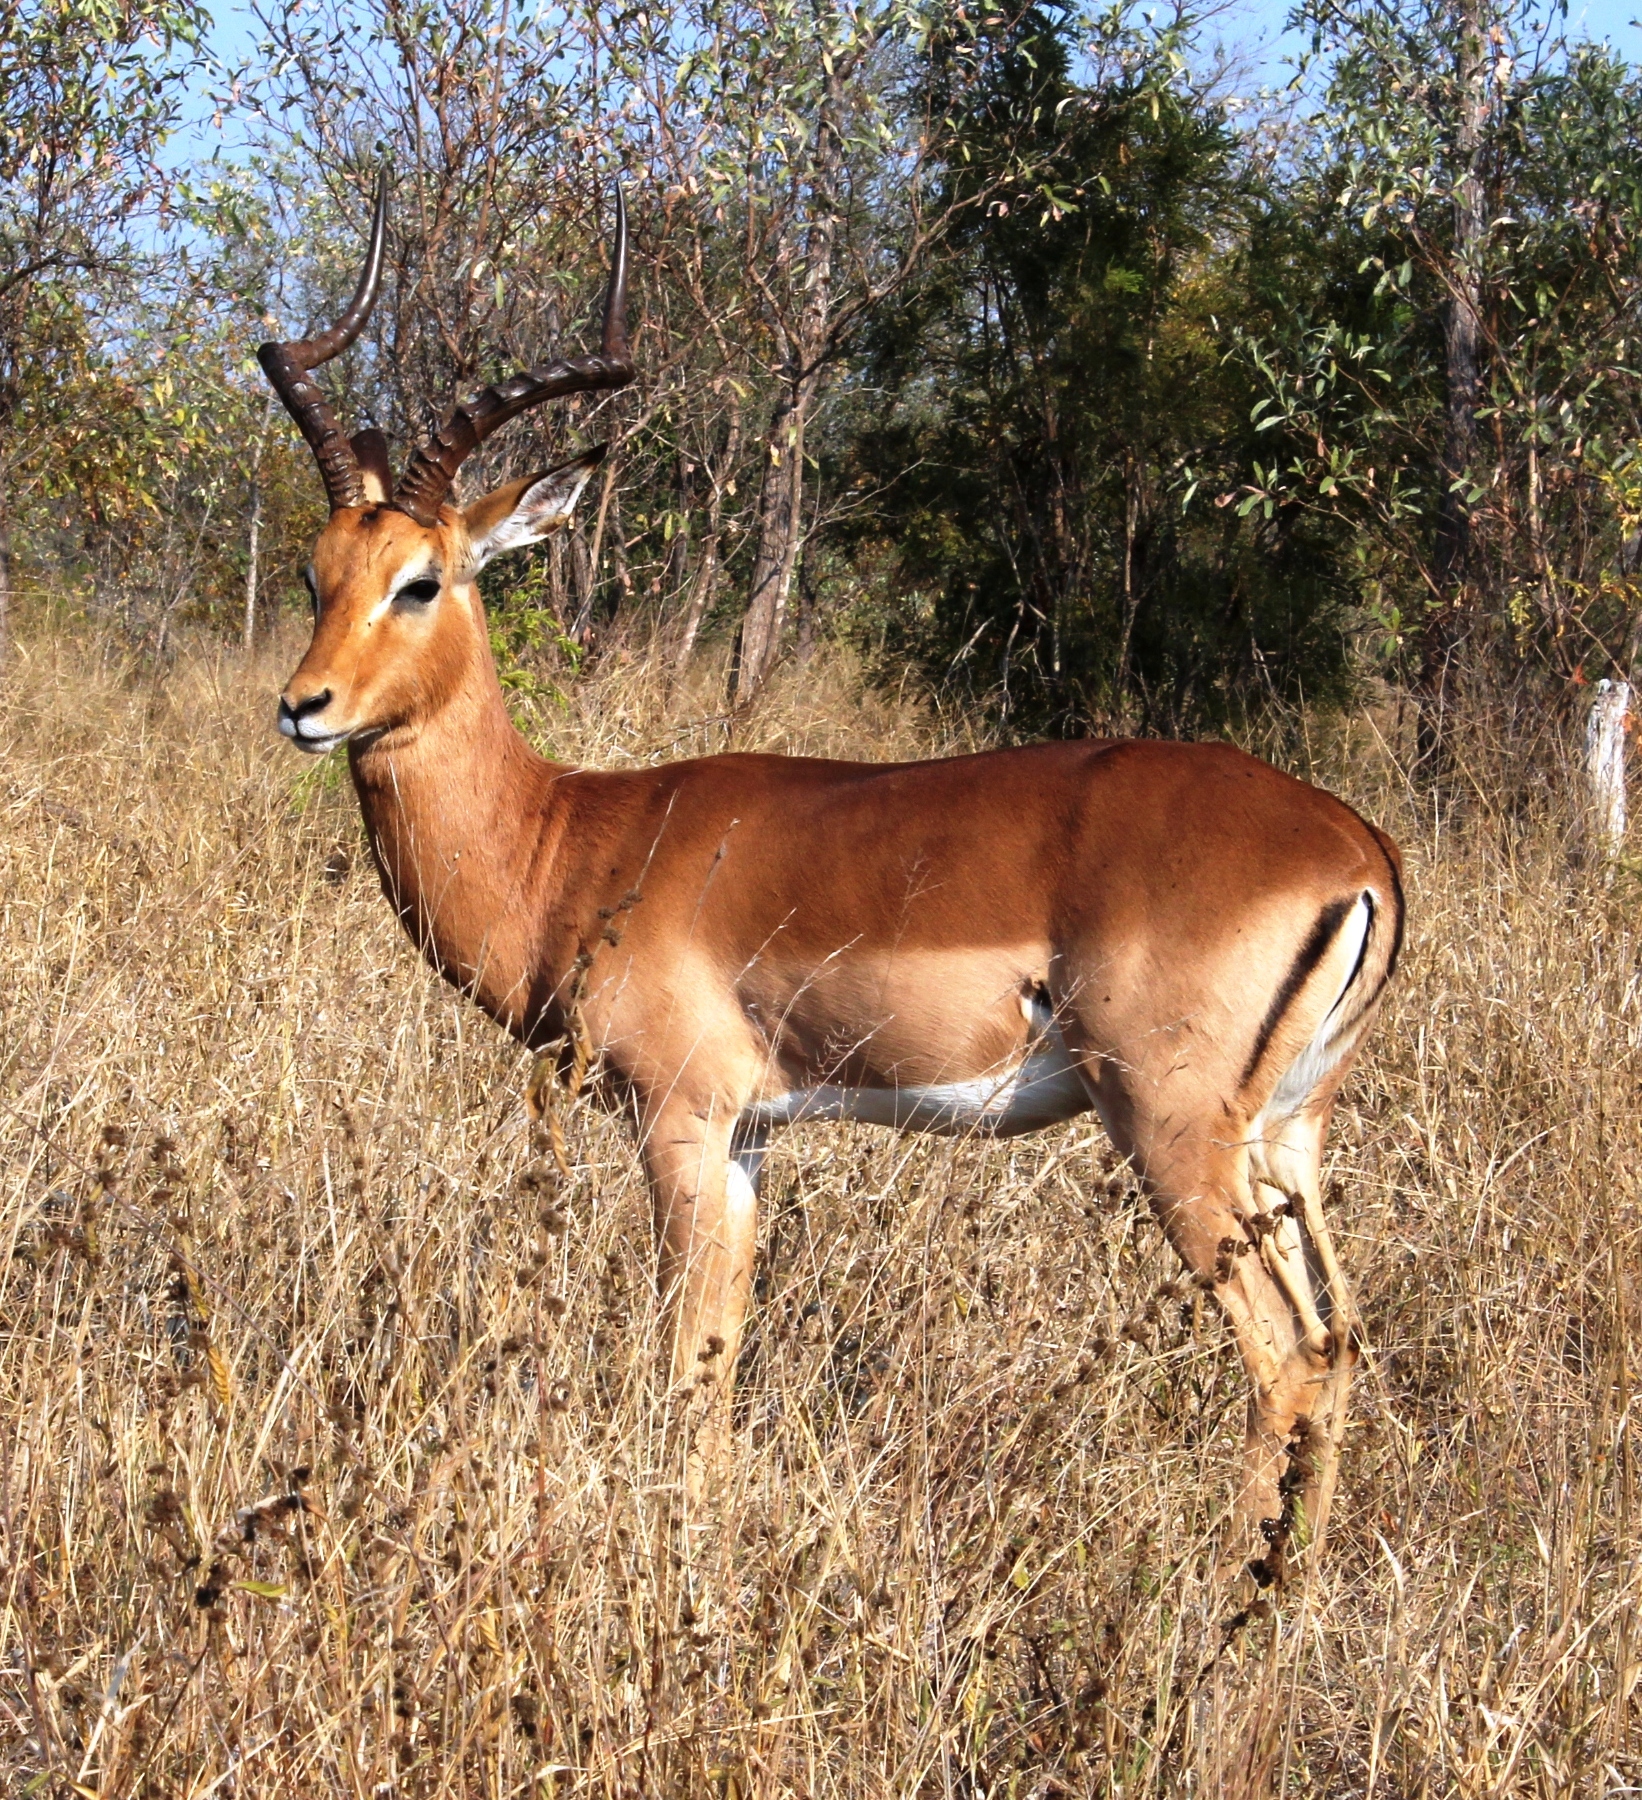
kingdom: Animalia
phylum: Chordata
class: Mammalia
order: Artiodactyla
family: Bovidae
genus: Aepyceros
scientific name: Aepyceros melampus
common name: Impala
